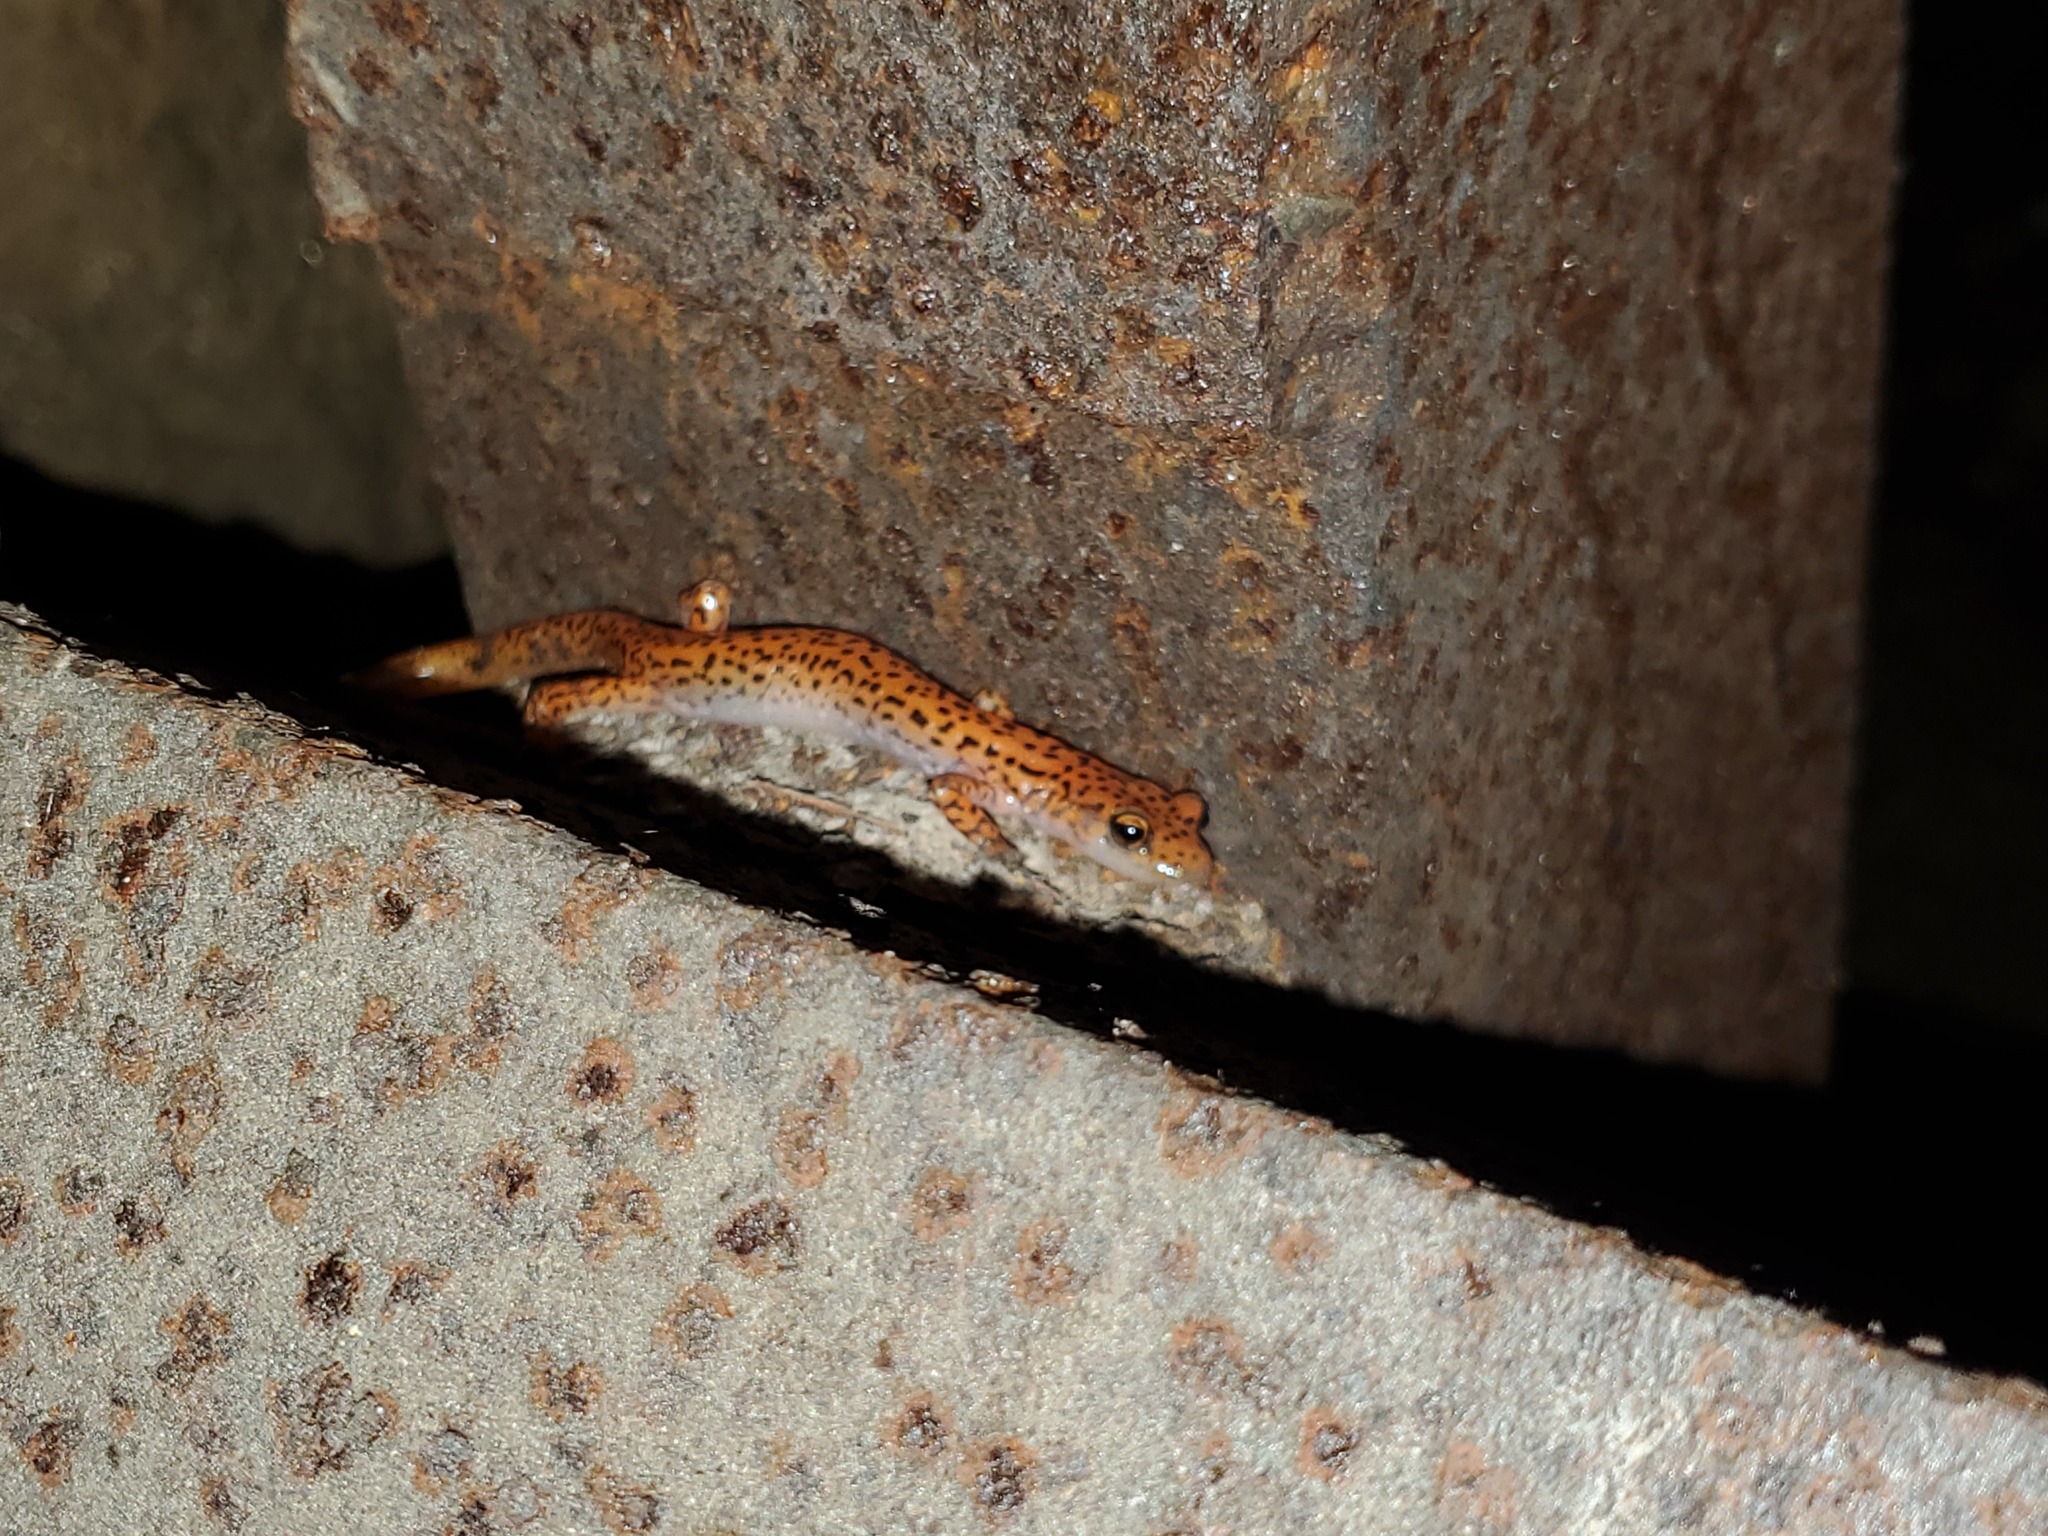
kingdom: Animalia
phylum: Chordata
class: Amphibia
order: Caudata
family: Plethodontidae
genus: Eurycea
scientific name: Eurycea lucifuga
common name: Cave salamander
